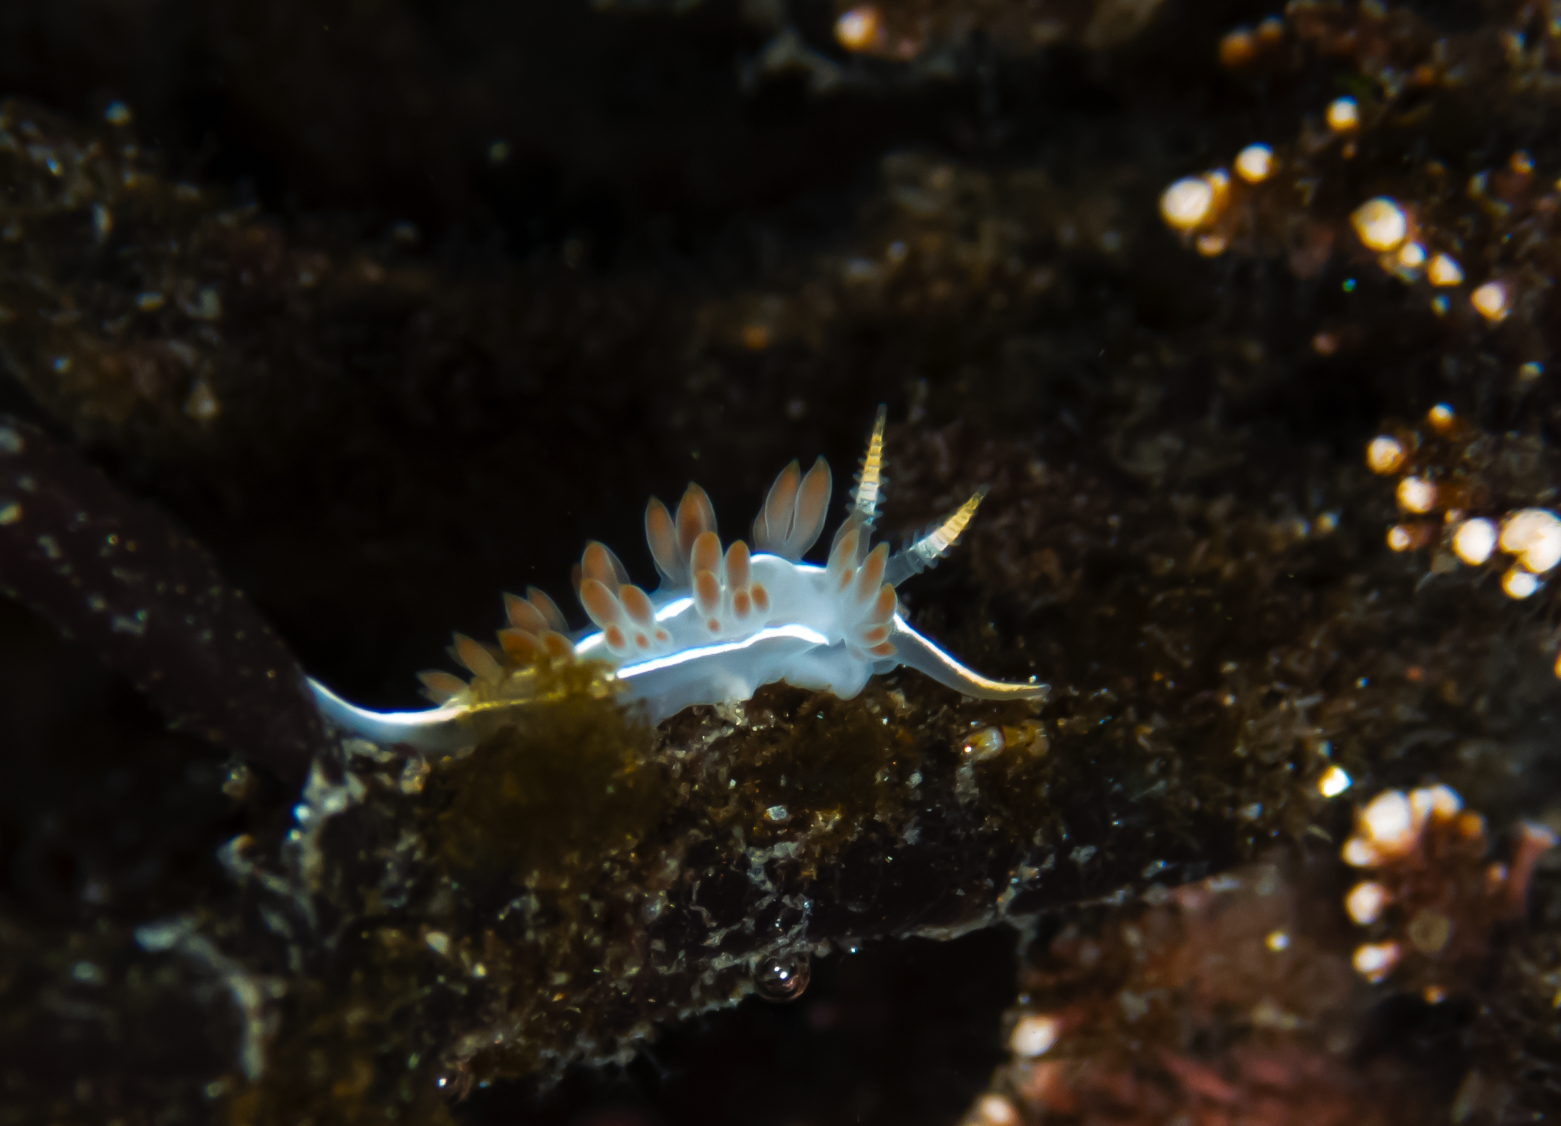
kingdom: Animalia
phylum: Mollusca
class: Gastropoda
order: Nudibranchia
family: Coryphellidae
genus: Coryphella
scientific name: Coryphella trilineata
